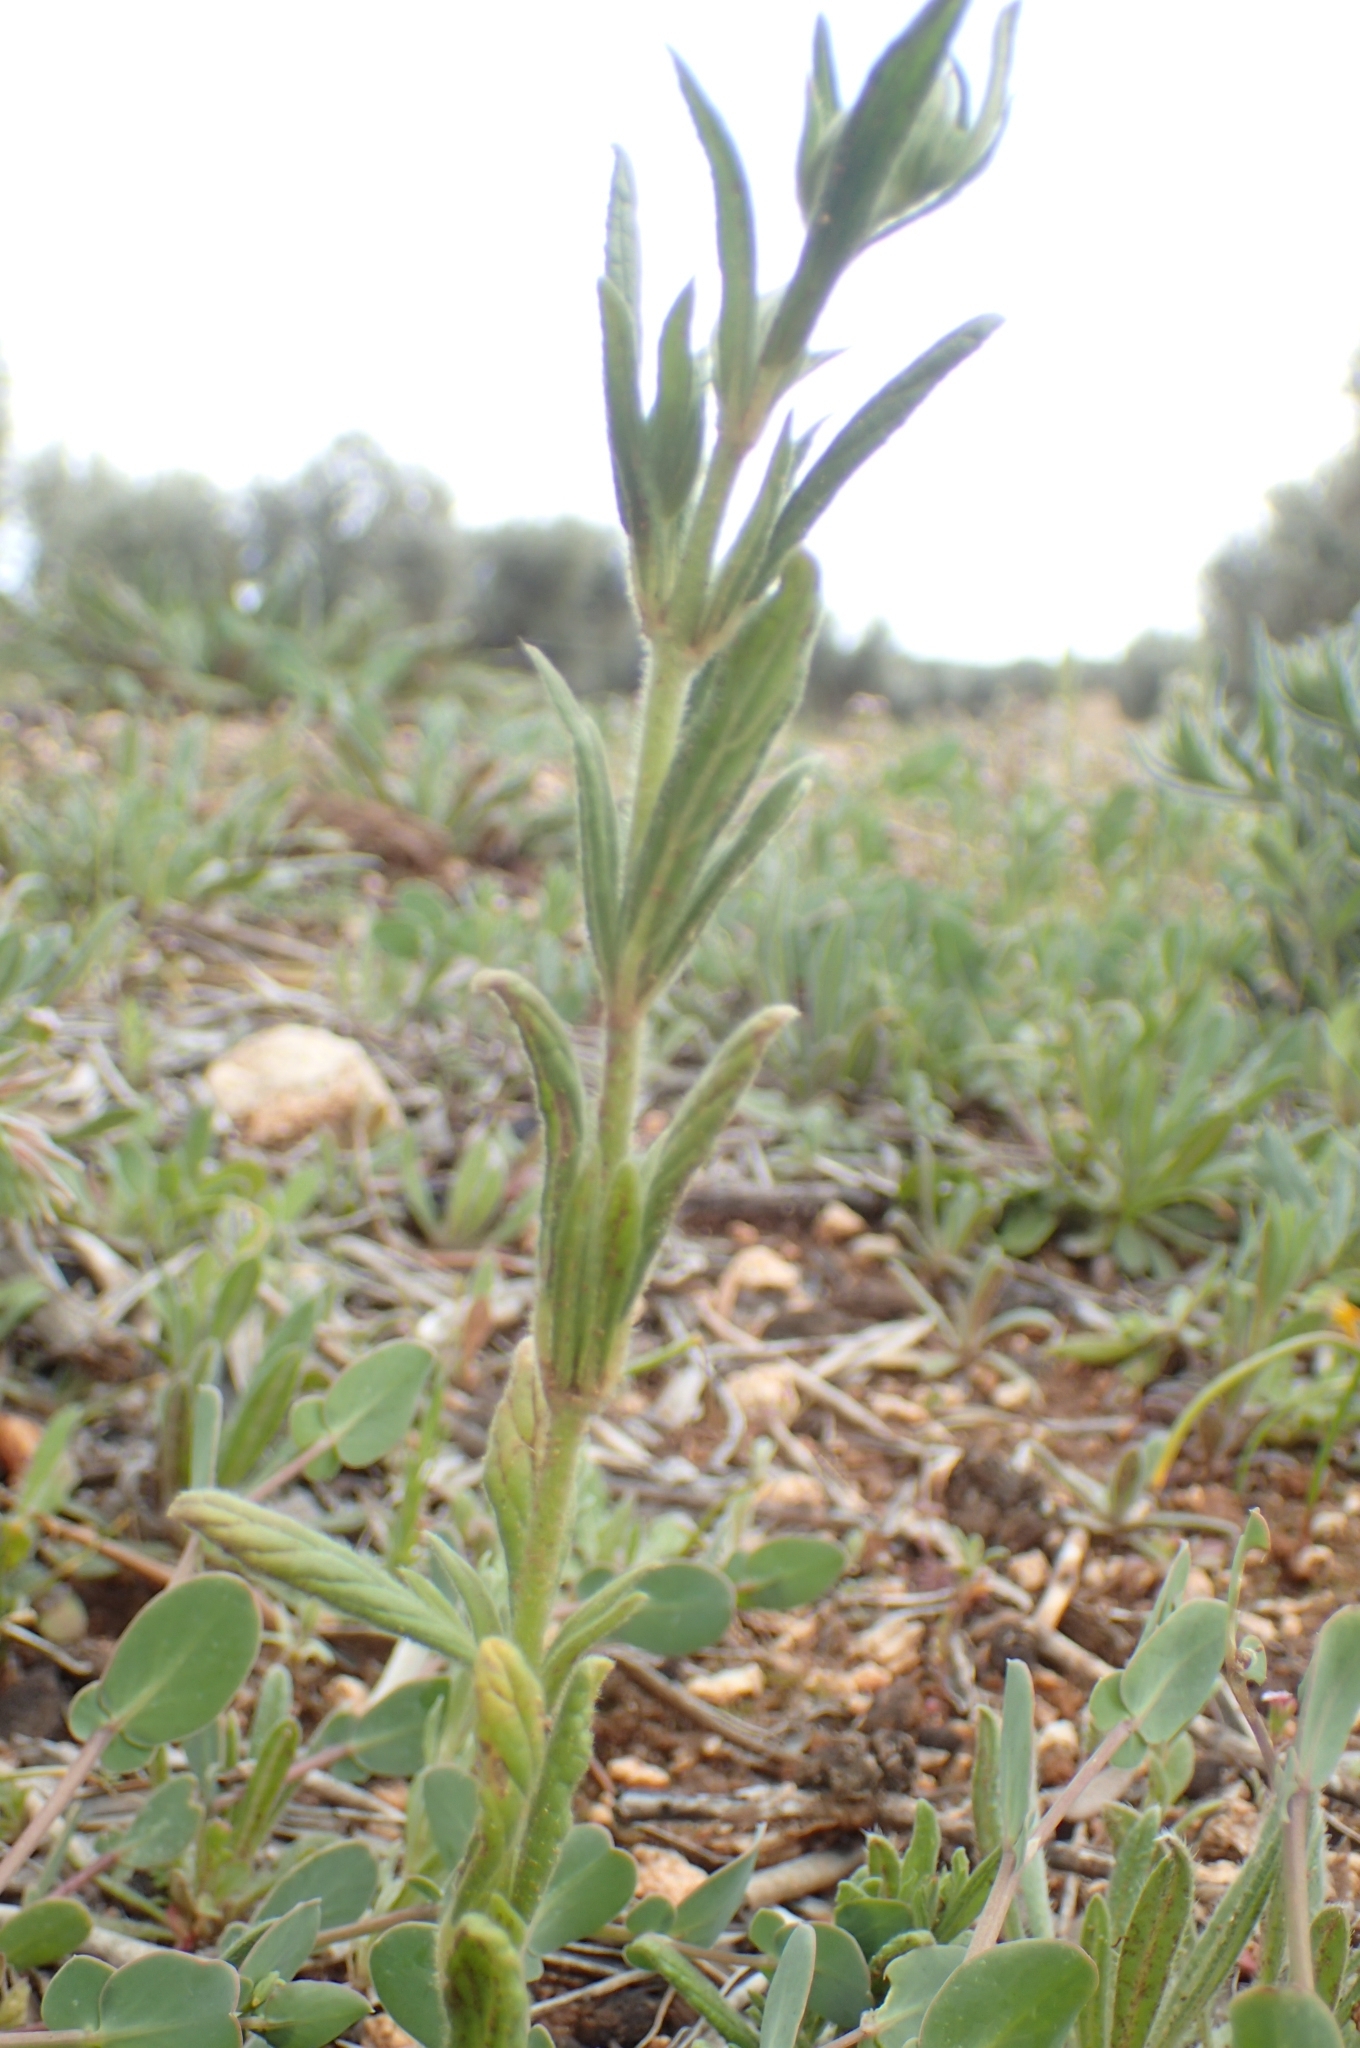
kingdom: Plantae
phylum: Tracheophyta
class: Magnoliopsida
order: Malvales
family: Cistaceae
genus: Helianthemum
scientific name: Helianthemum ledifolium
